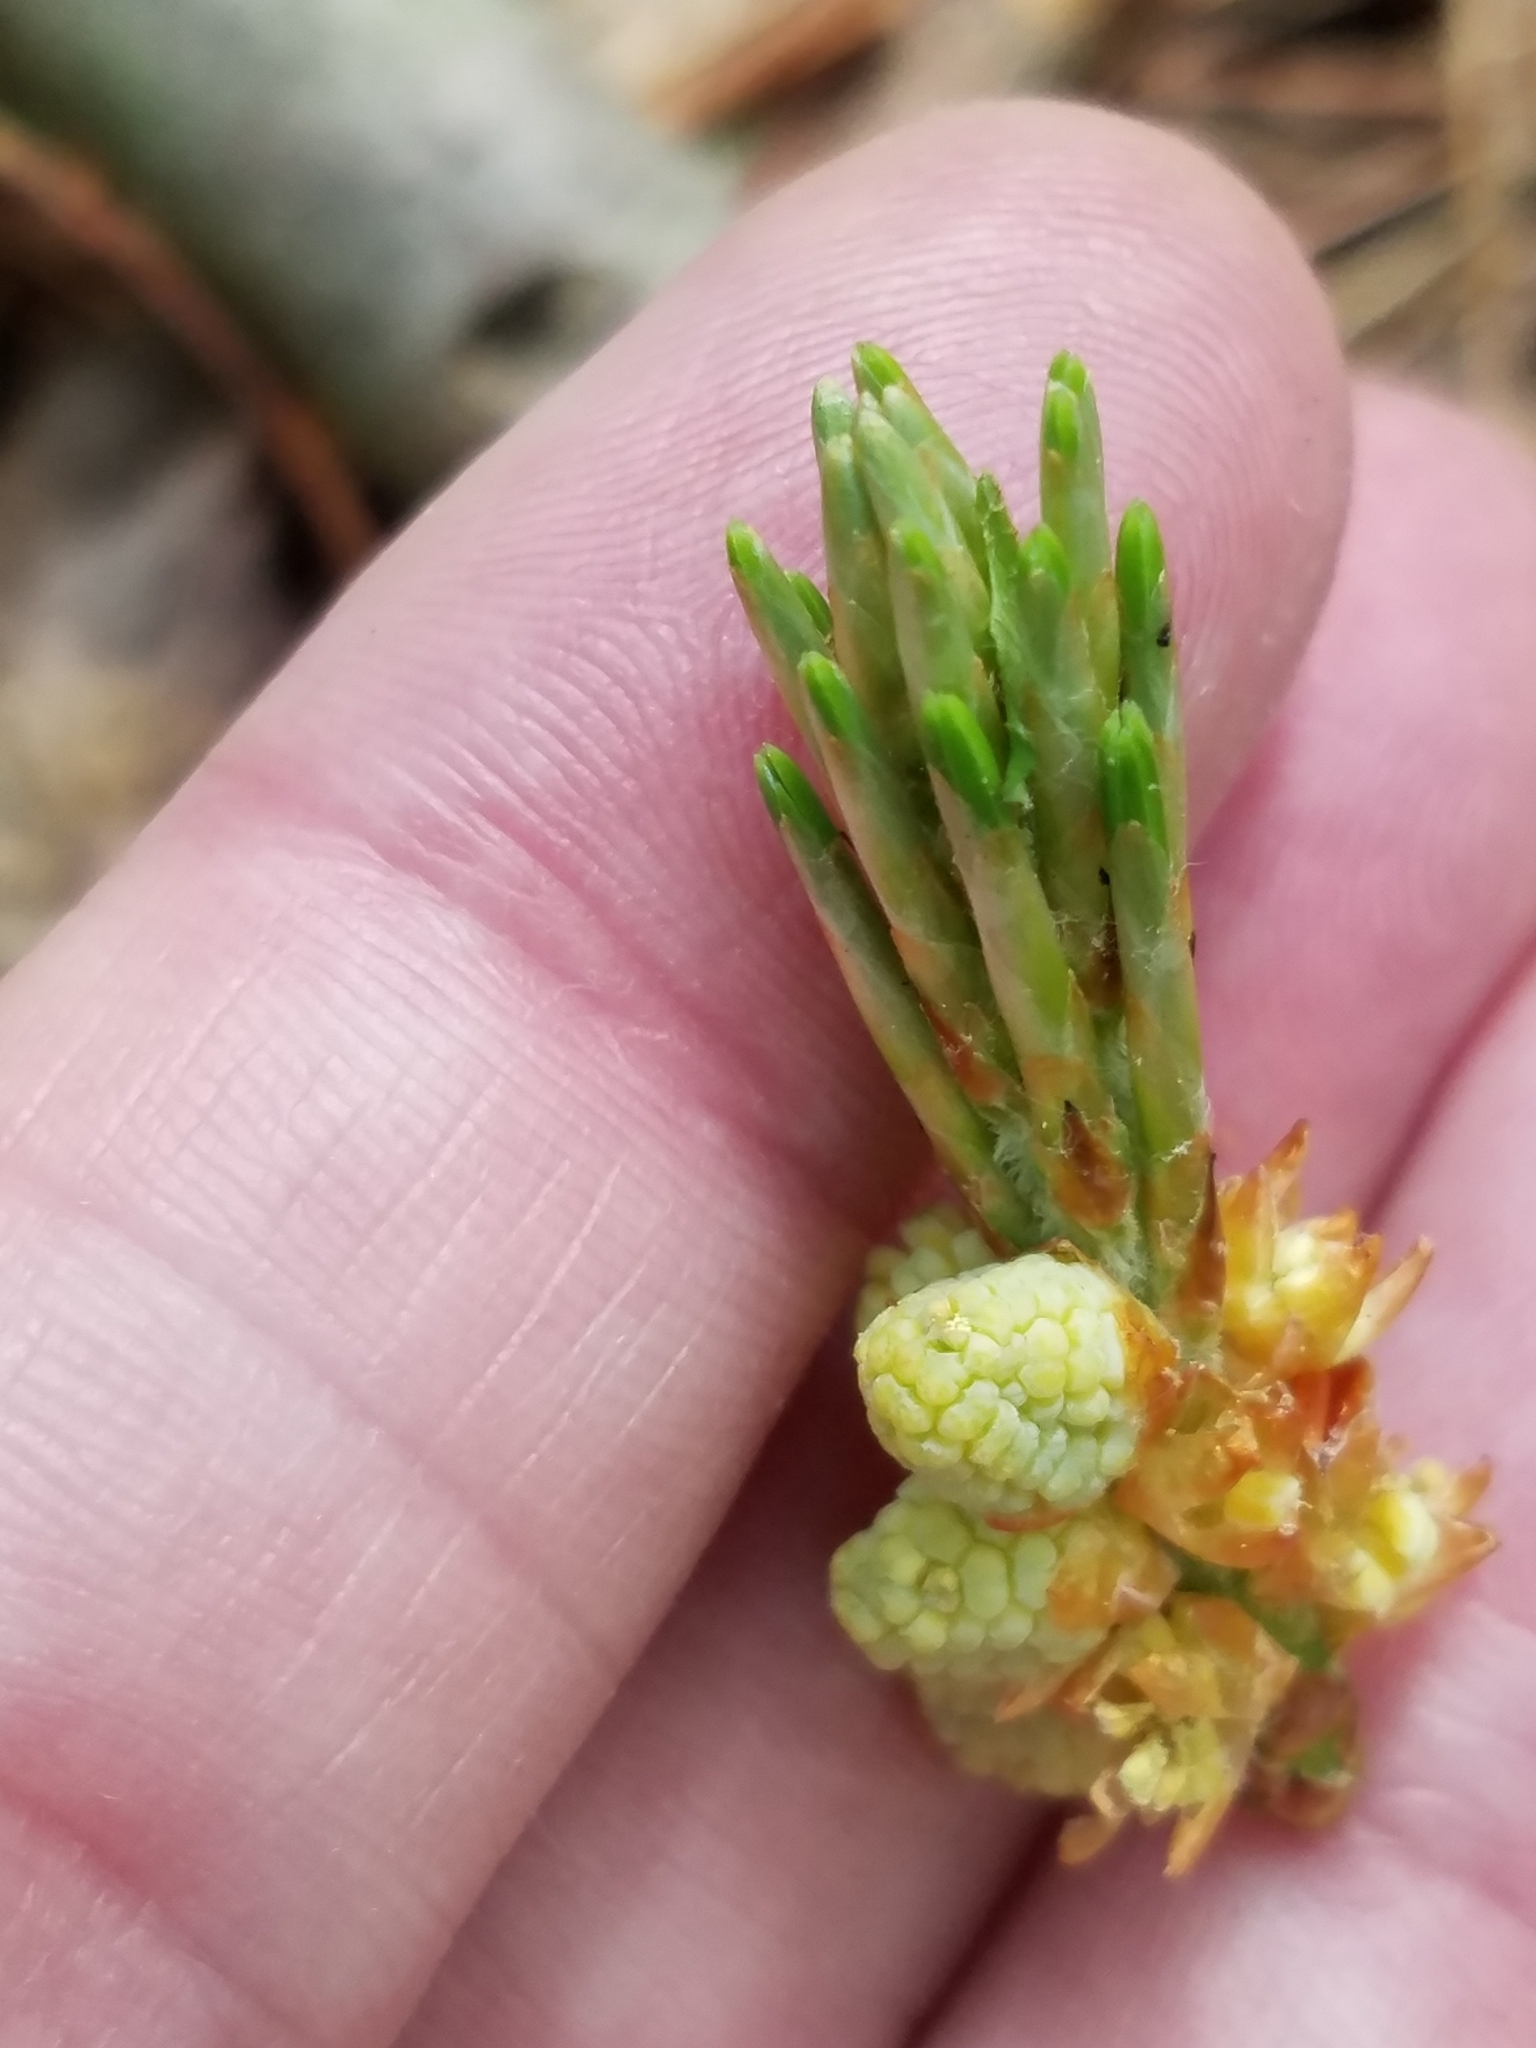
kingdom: Plantae
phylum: Tracheophyta
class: Pinopsida
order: Pinales
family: Pinaceae
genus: Pinus
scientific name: Pinus strobus
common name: Weymouth pine
